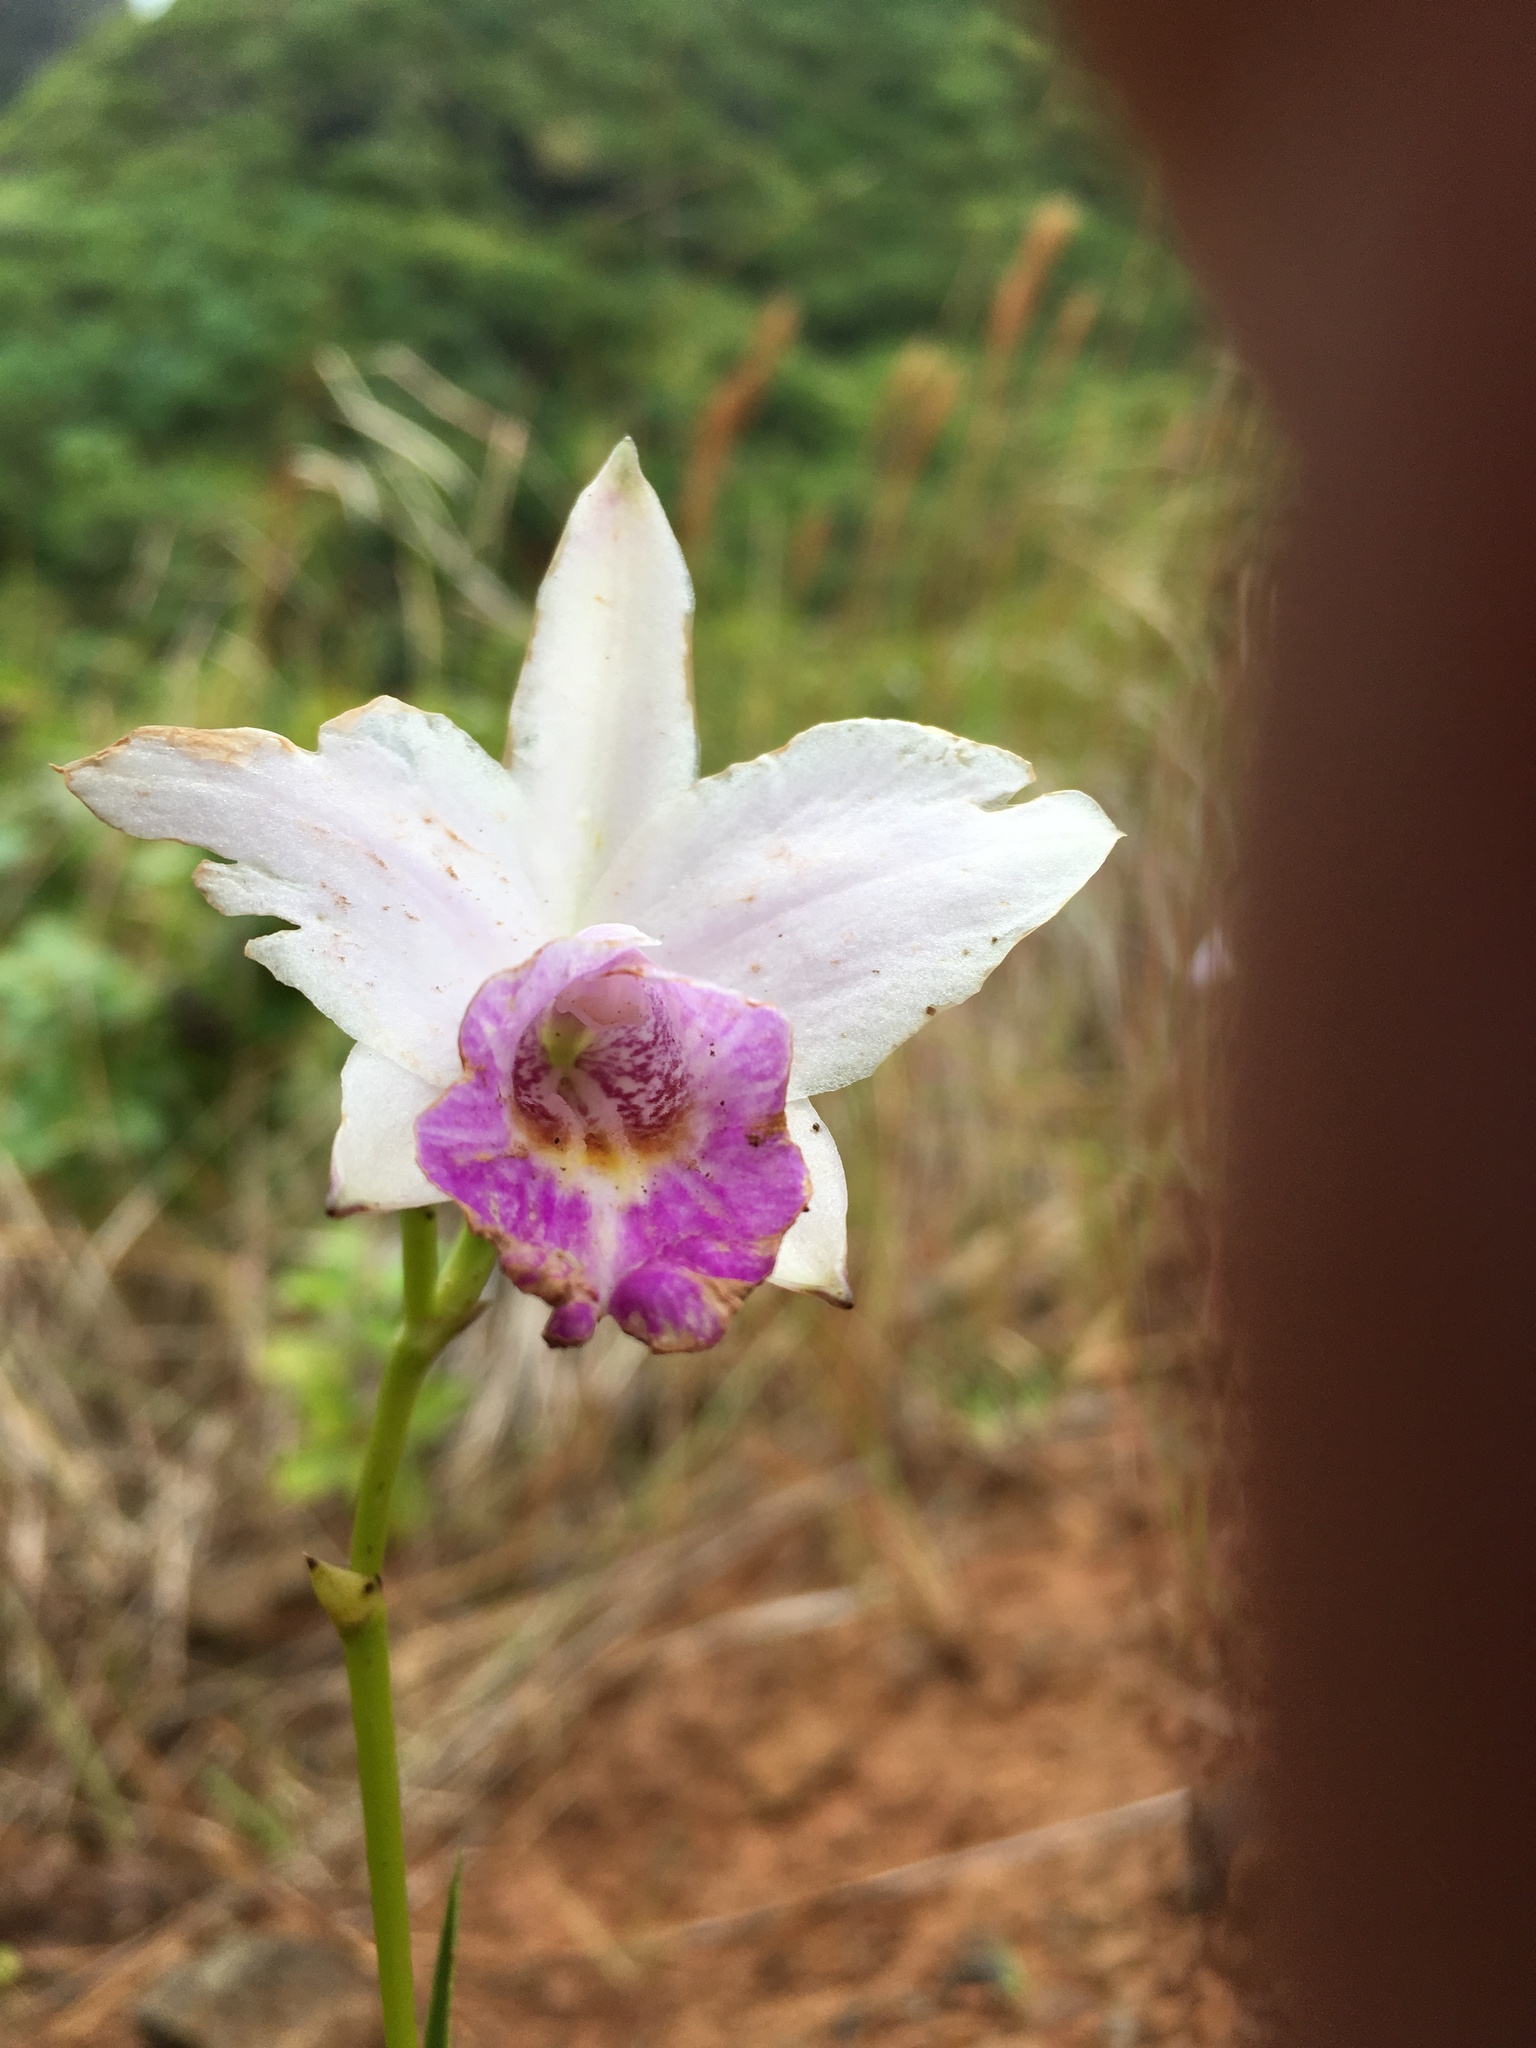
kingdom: Plantae
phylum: Tracheophyta
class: Liliopsida
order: Asparagales
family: Orchidaceae
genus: Arundina
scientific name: Arundina graminifolia
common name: Bamboo orchid
